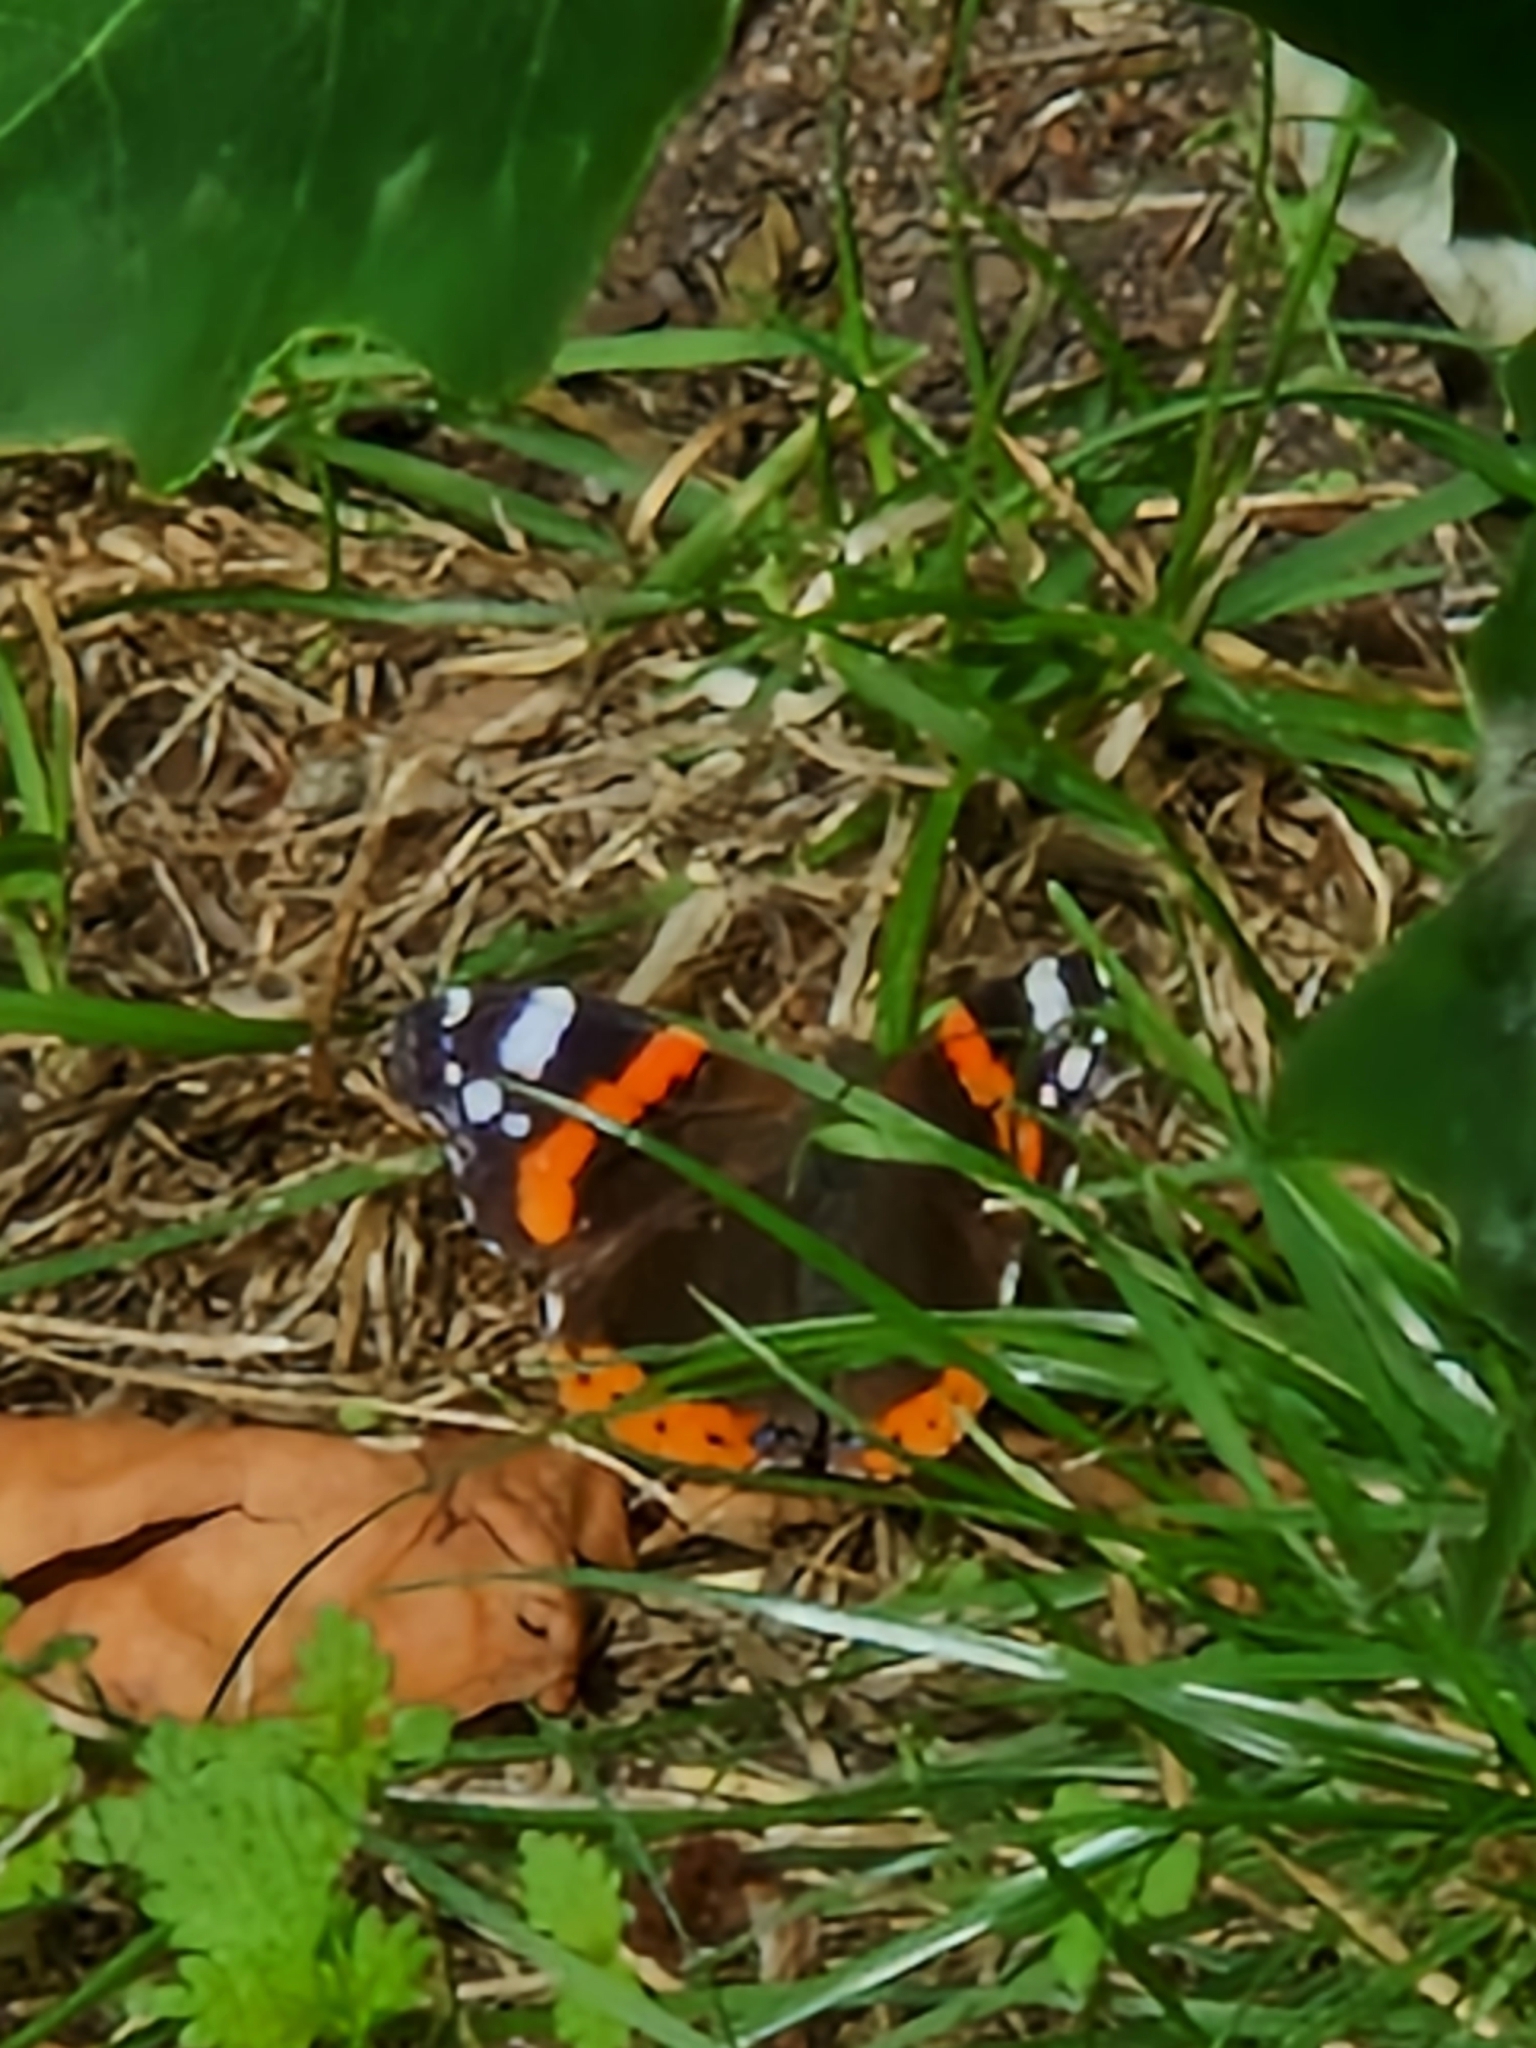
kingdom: Animalia
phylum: Arthropoda
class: Insecta
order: Lepidoptera
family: Nymphalidae
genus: Vanessa
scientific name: Vanessa atalanta
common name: Red admiral
